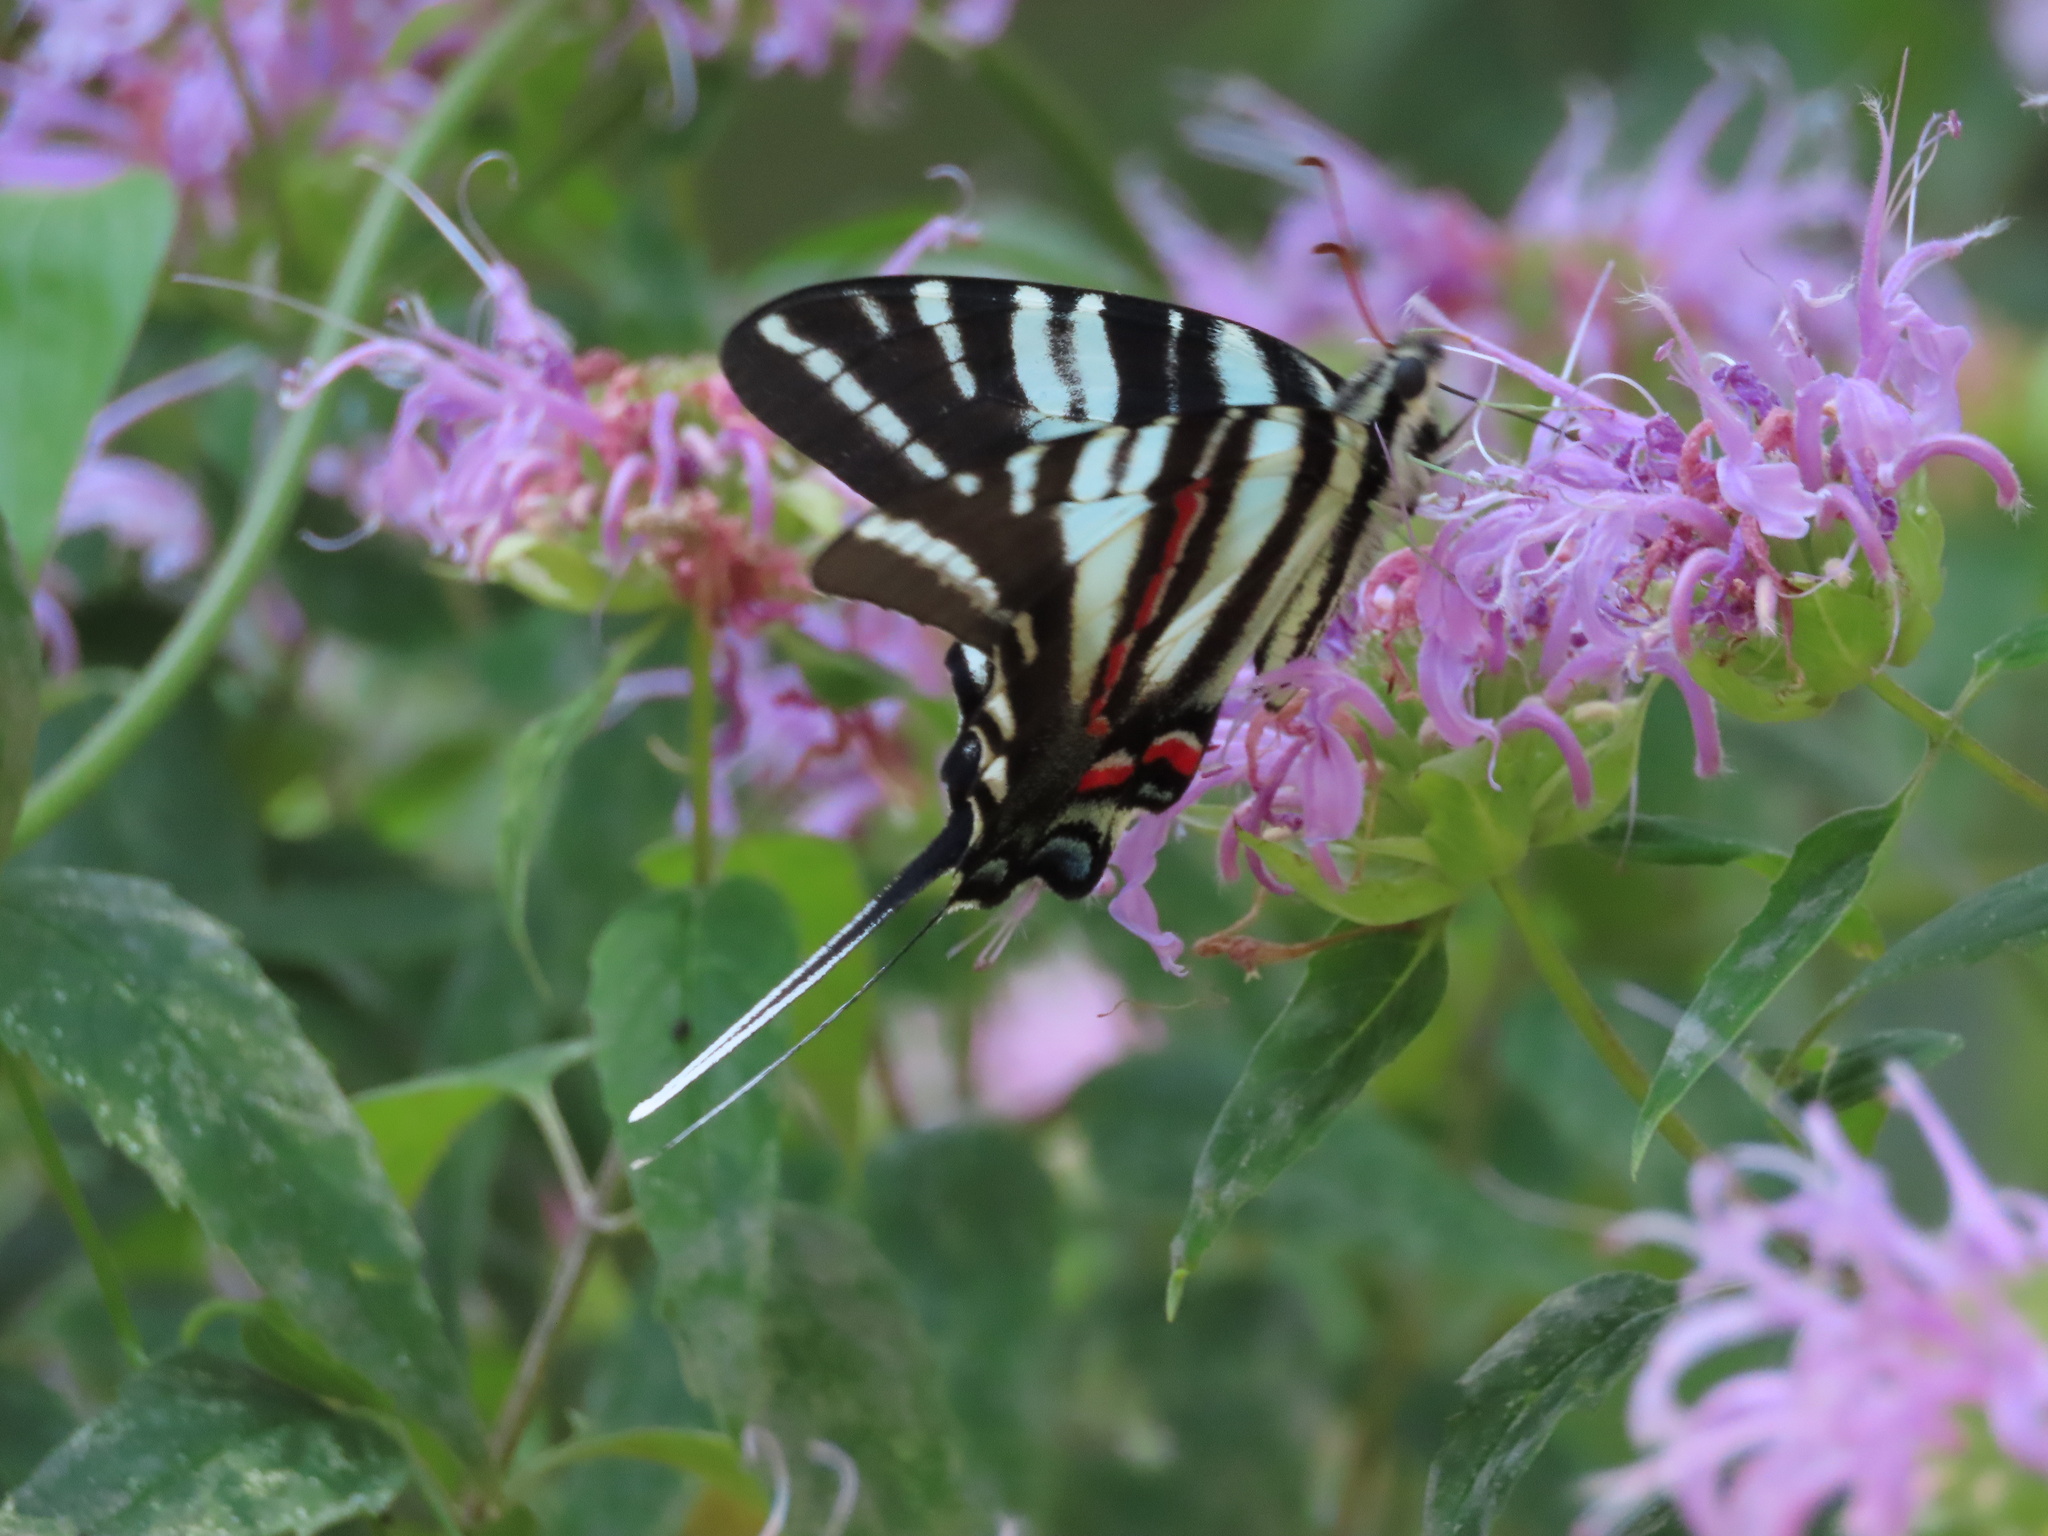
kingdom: Animalia
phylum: Arthropoda
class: Insecta
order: Lepidoptera
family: Papilionidae
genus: Protographium
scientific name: Protographium marcellus
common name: Zebra swallowtail
